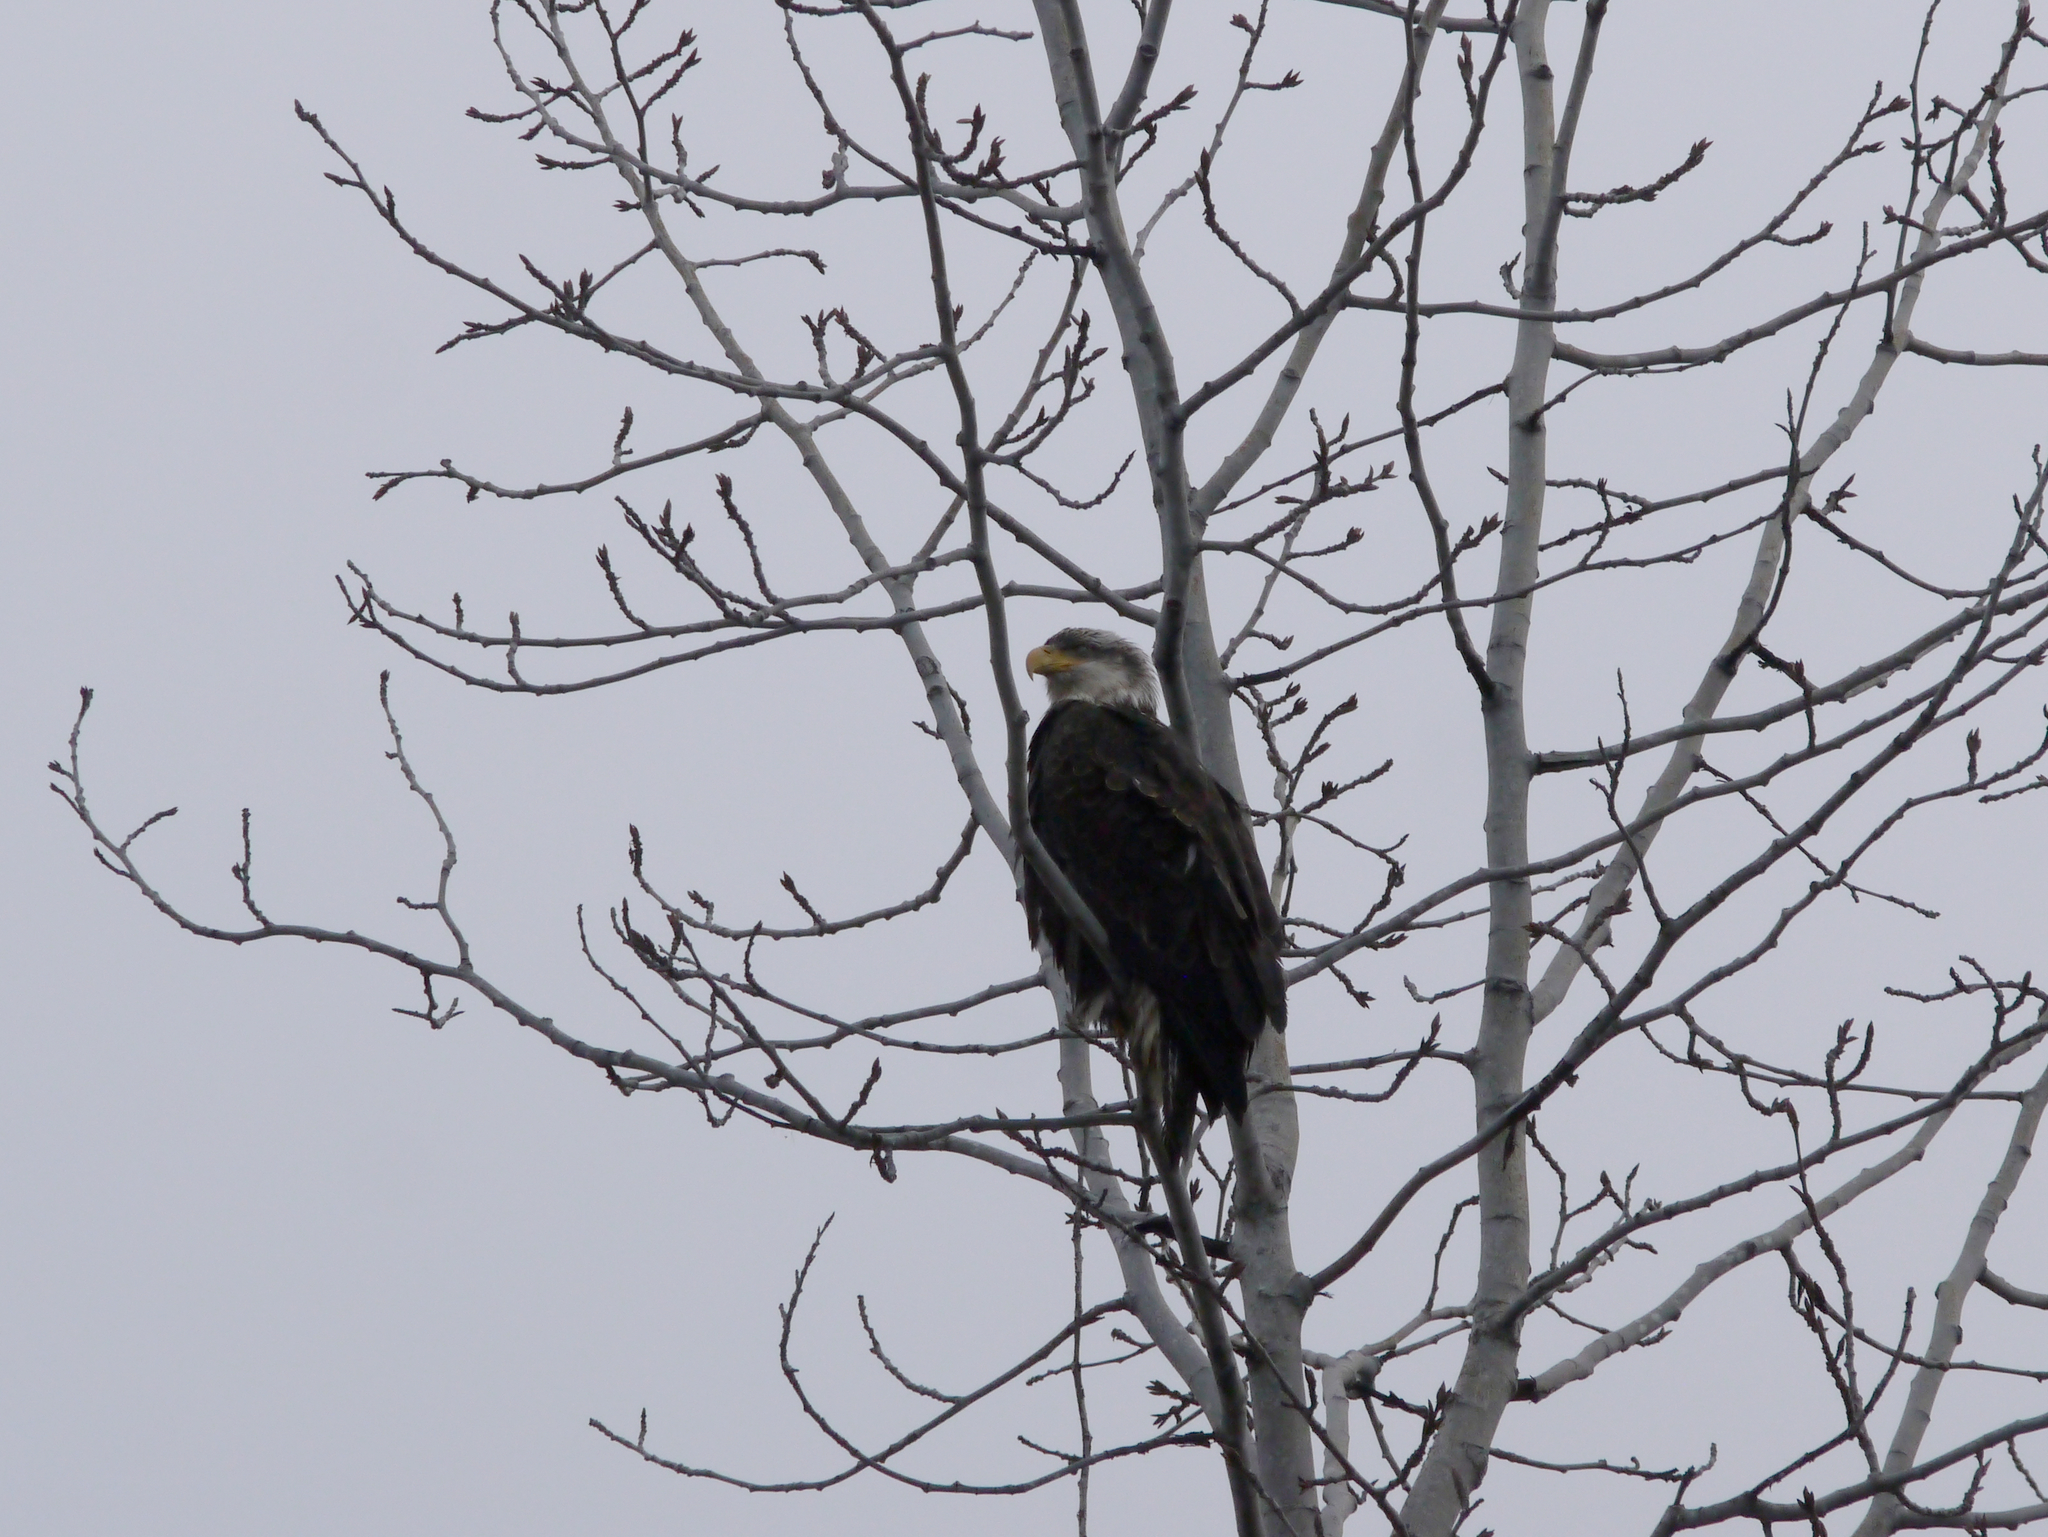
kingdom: Animalia
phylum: Chordata
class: Aves
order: Accipitriformes
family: Accipitridae
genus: Haliaeetus
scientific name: Haliaeetus leucocephalus
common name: Bald eagle
